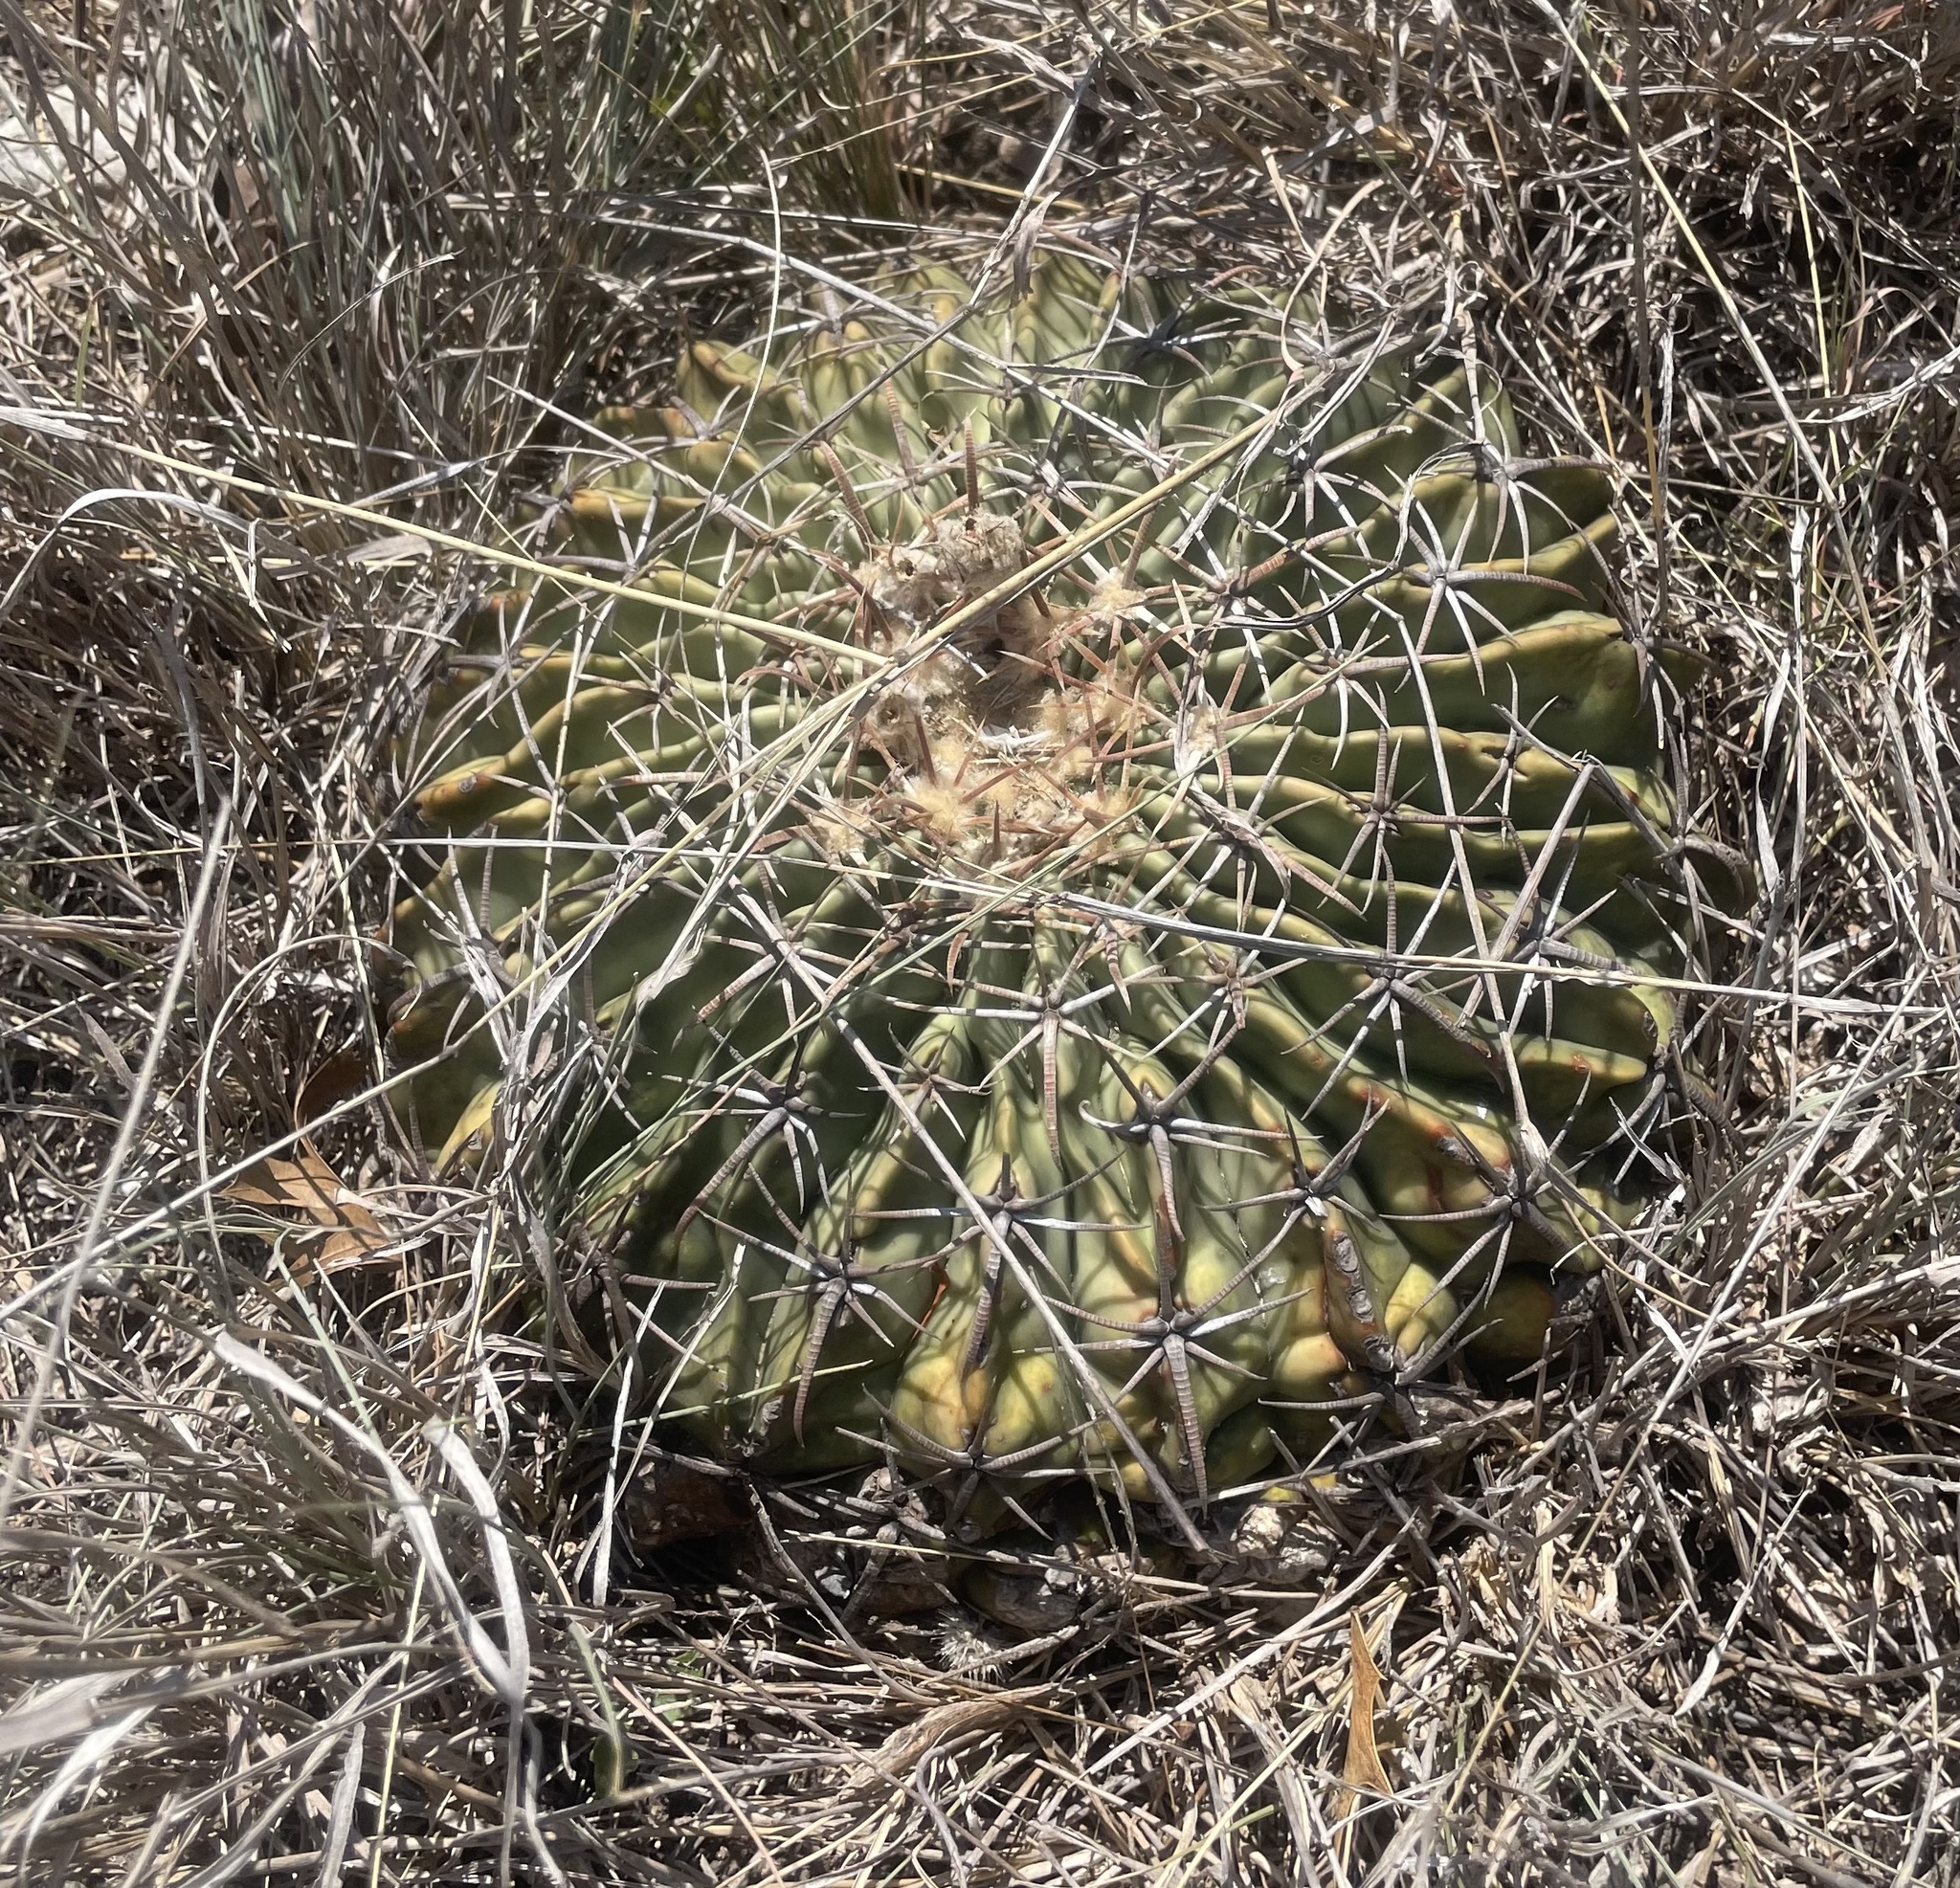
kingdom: Plantae
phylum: Tracheophyta
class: Magnoliopsida
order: Caryophyllales
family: Cactaceae
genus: Echinocactus
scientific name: Echinocactus texensis
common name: Devil's pincushion
